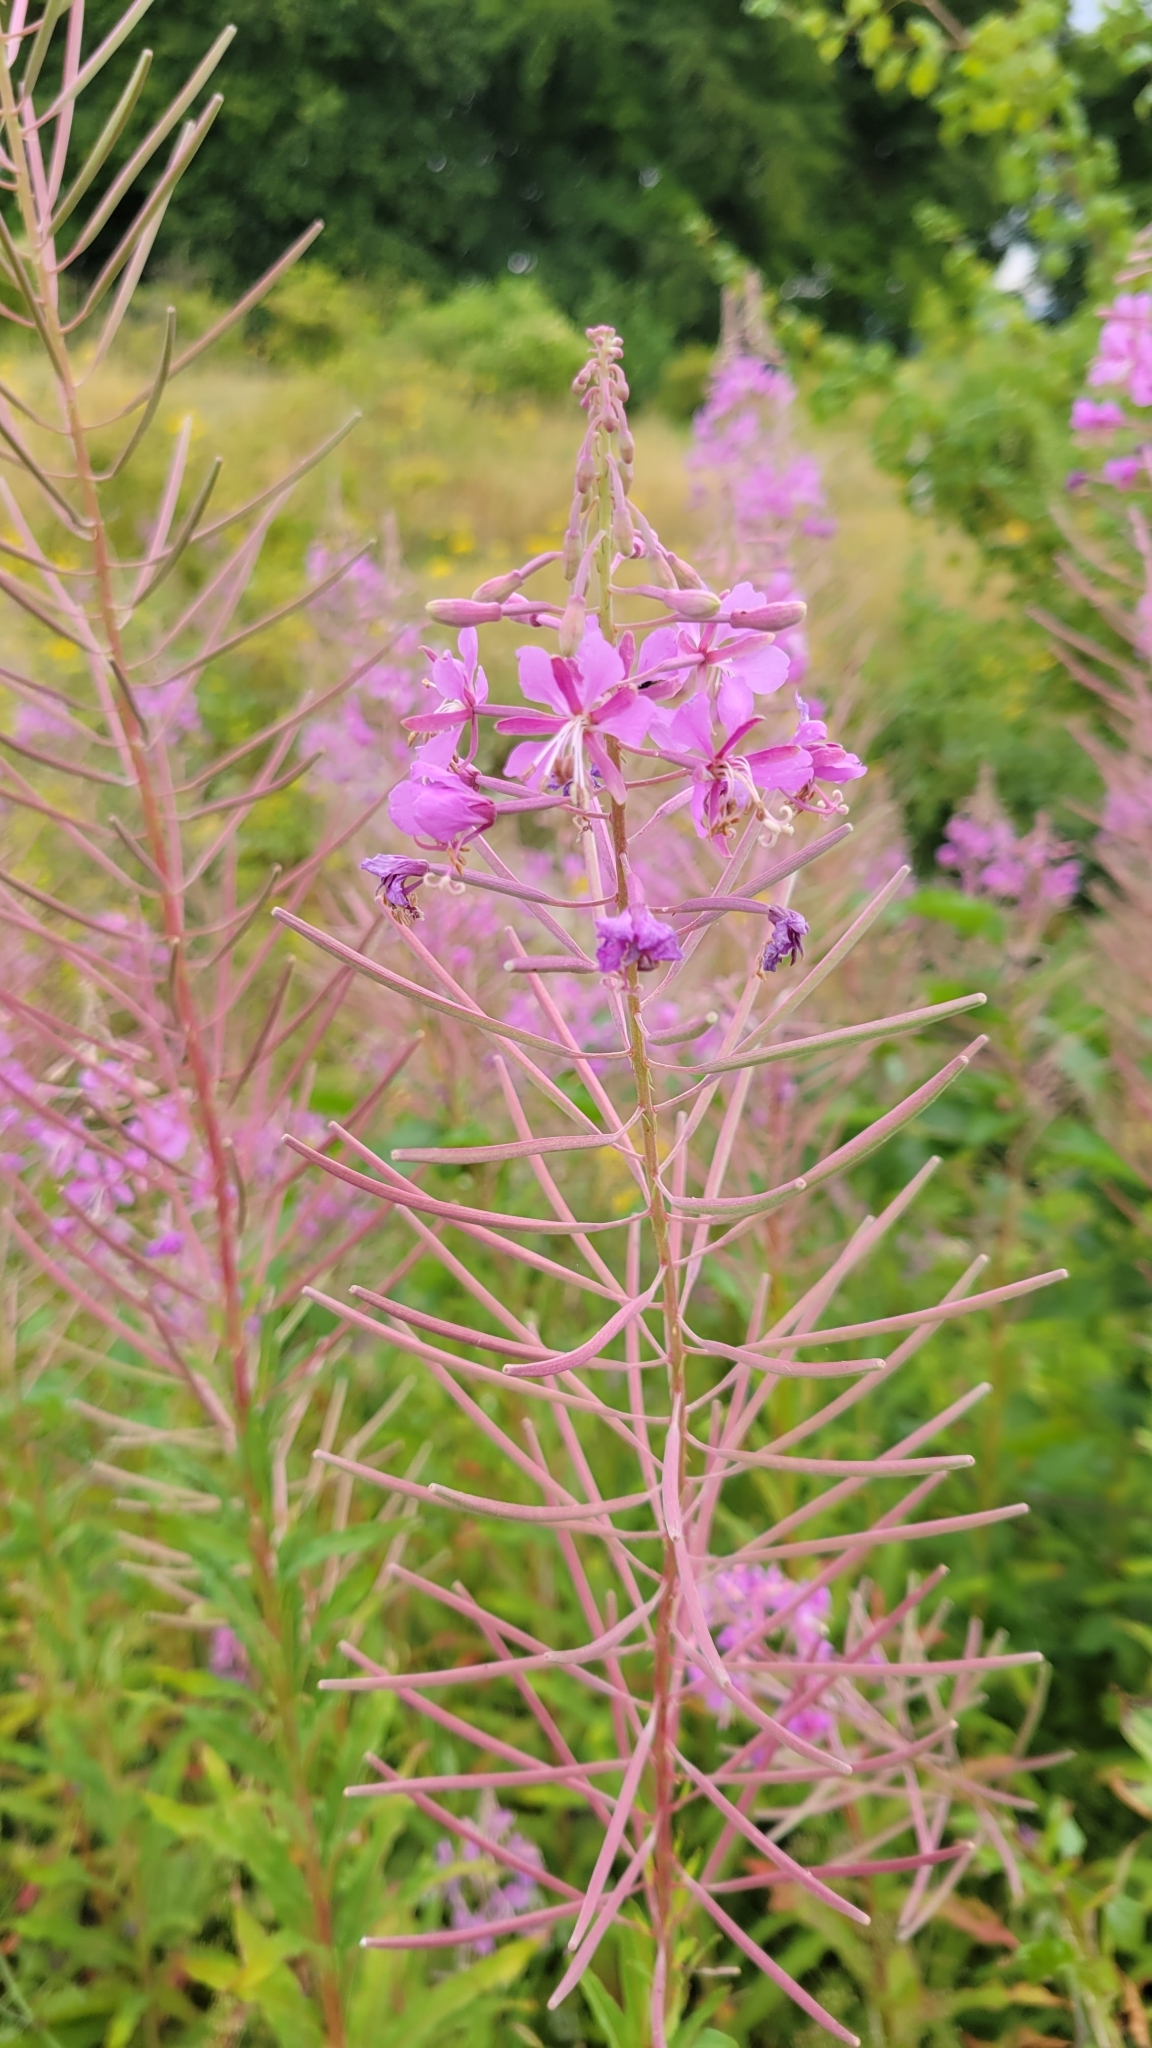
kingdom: Plantae
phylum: Tracheophyta
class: Magnoliopsida
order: Myrtales
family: Onagraceae
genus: Chamaenerion
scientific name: Chamaenerion angustifolium
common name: Fireweed
